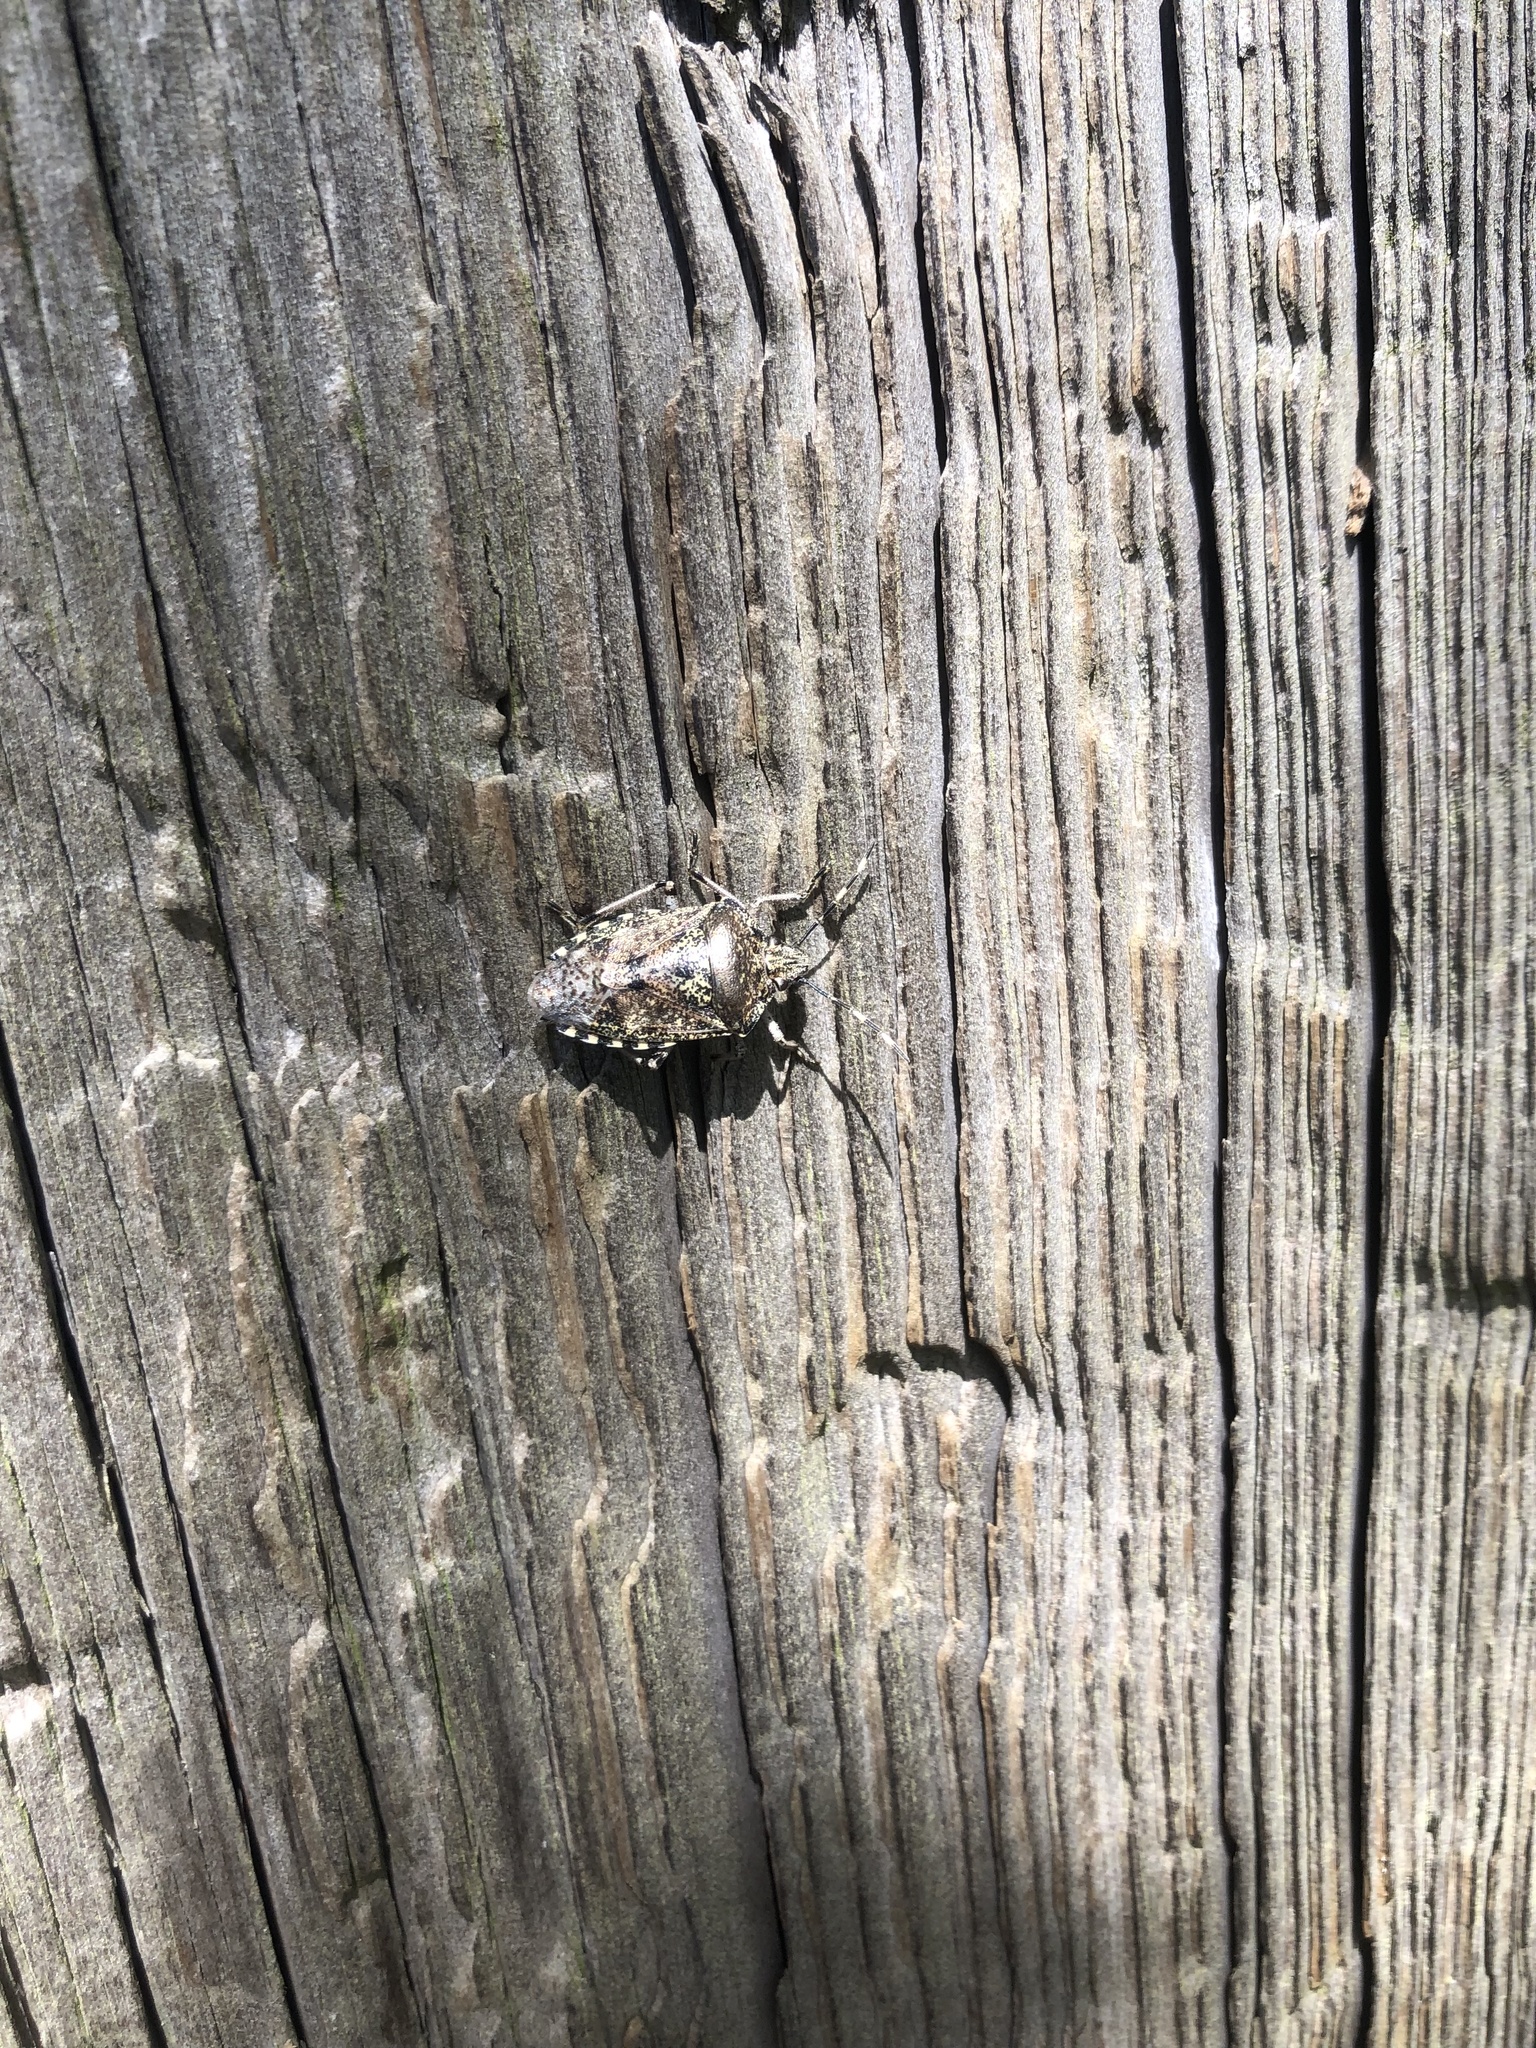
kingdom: Animalia
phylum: Arthropoda
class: Insecta
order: Hemiptera
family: Pentatomidae
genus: Rhaphigaster
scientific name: Rhaphigaster nebulosa
